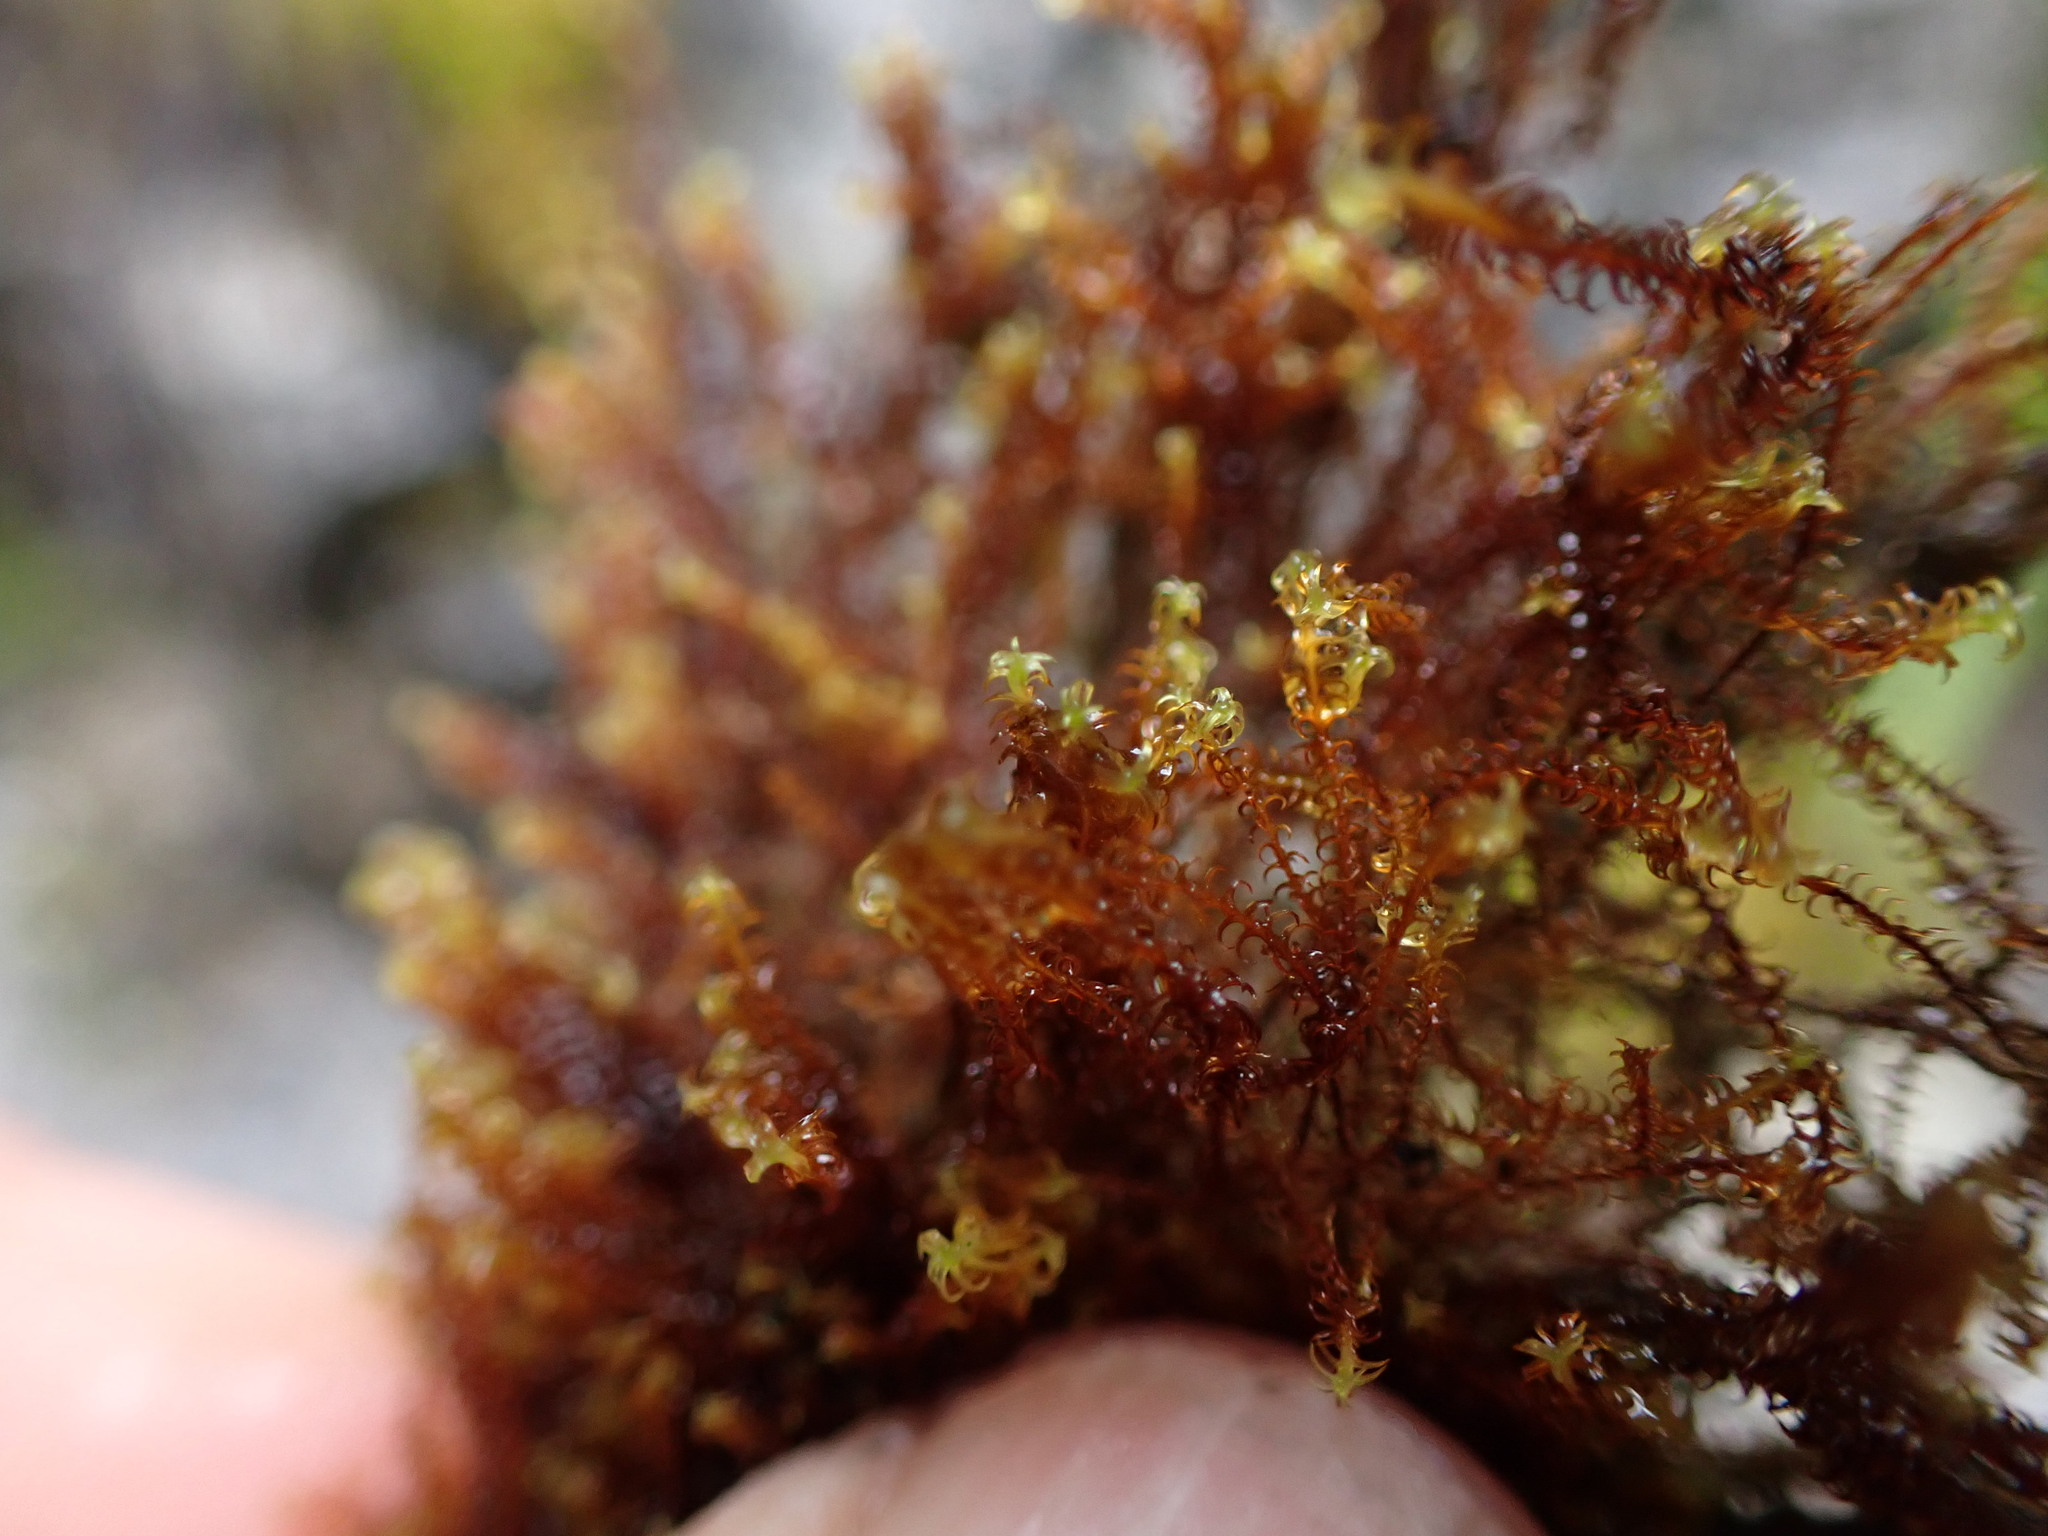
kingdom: Plantae
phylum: Bryophyta
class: Bryopsida
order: Pottiales
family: Pottiaceae
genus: Geheebia
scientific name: Geheebia ferruginea
